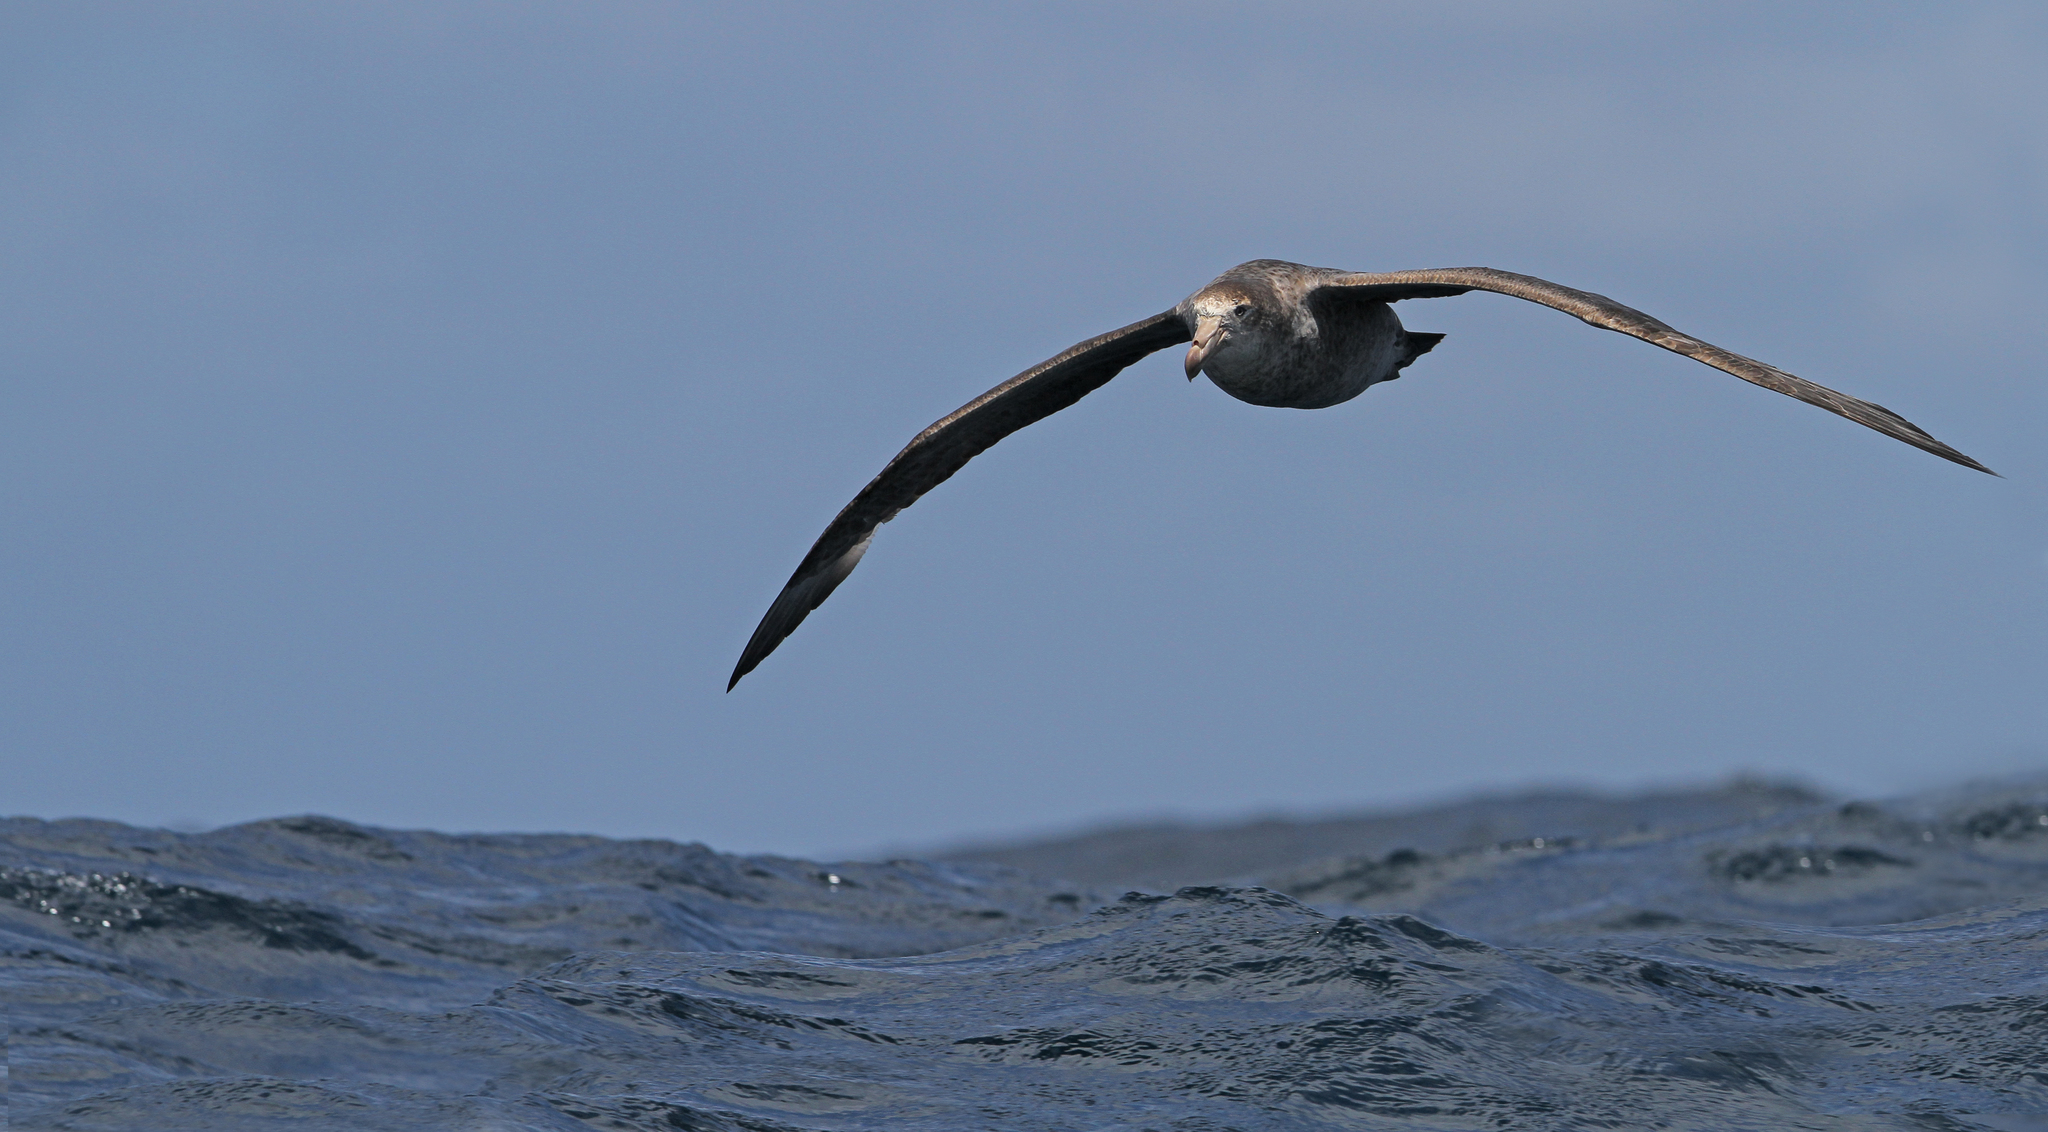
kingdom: Animalia
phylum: Chordata
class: Aves
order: Procellariiformes
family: Procellariidae
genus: Macronectes
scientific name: Macronectes halli
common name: Northern giant petrel
